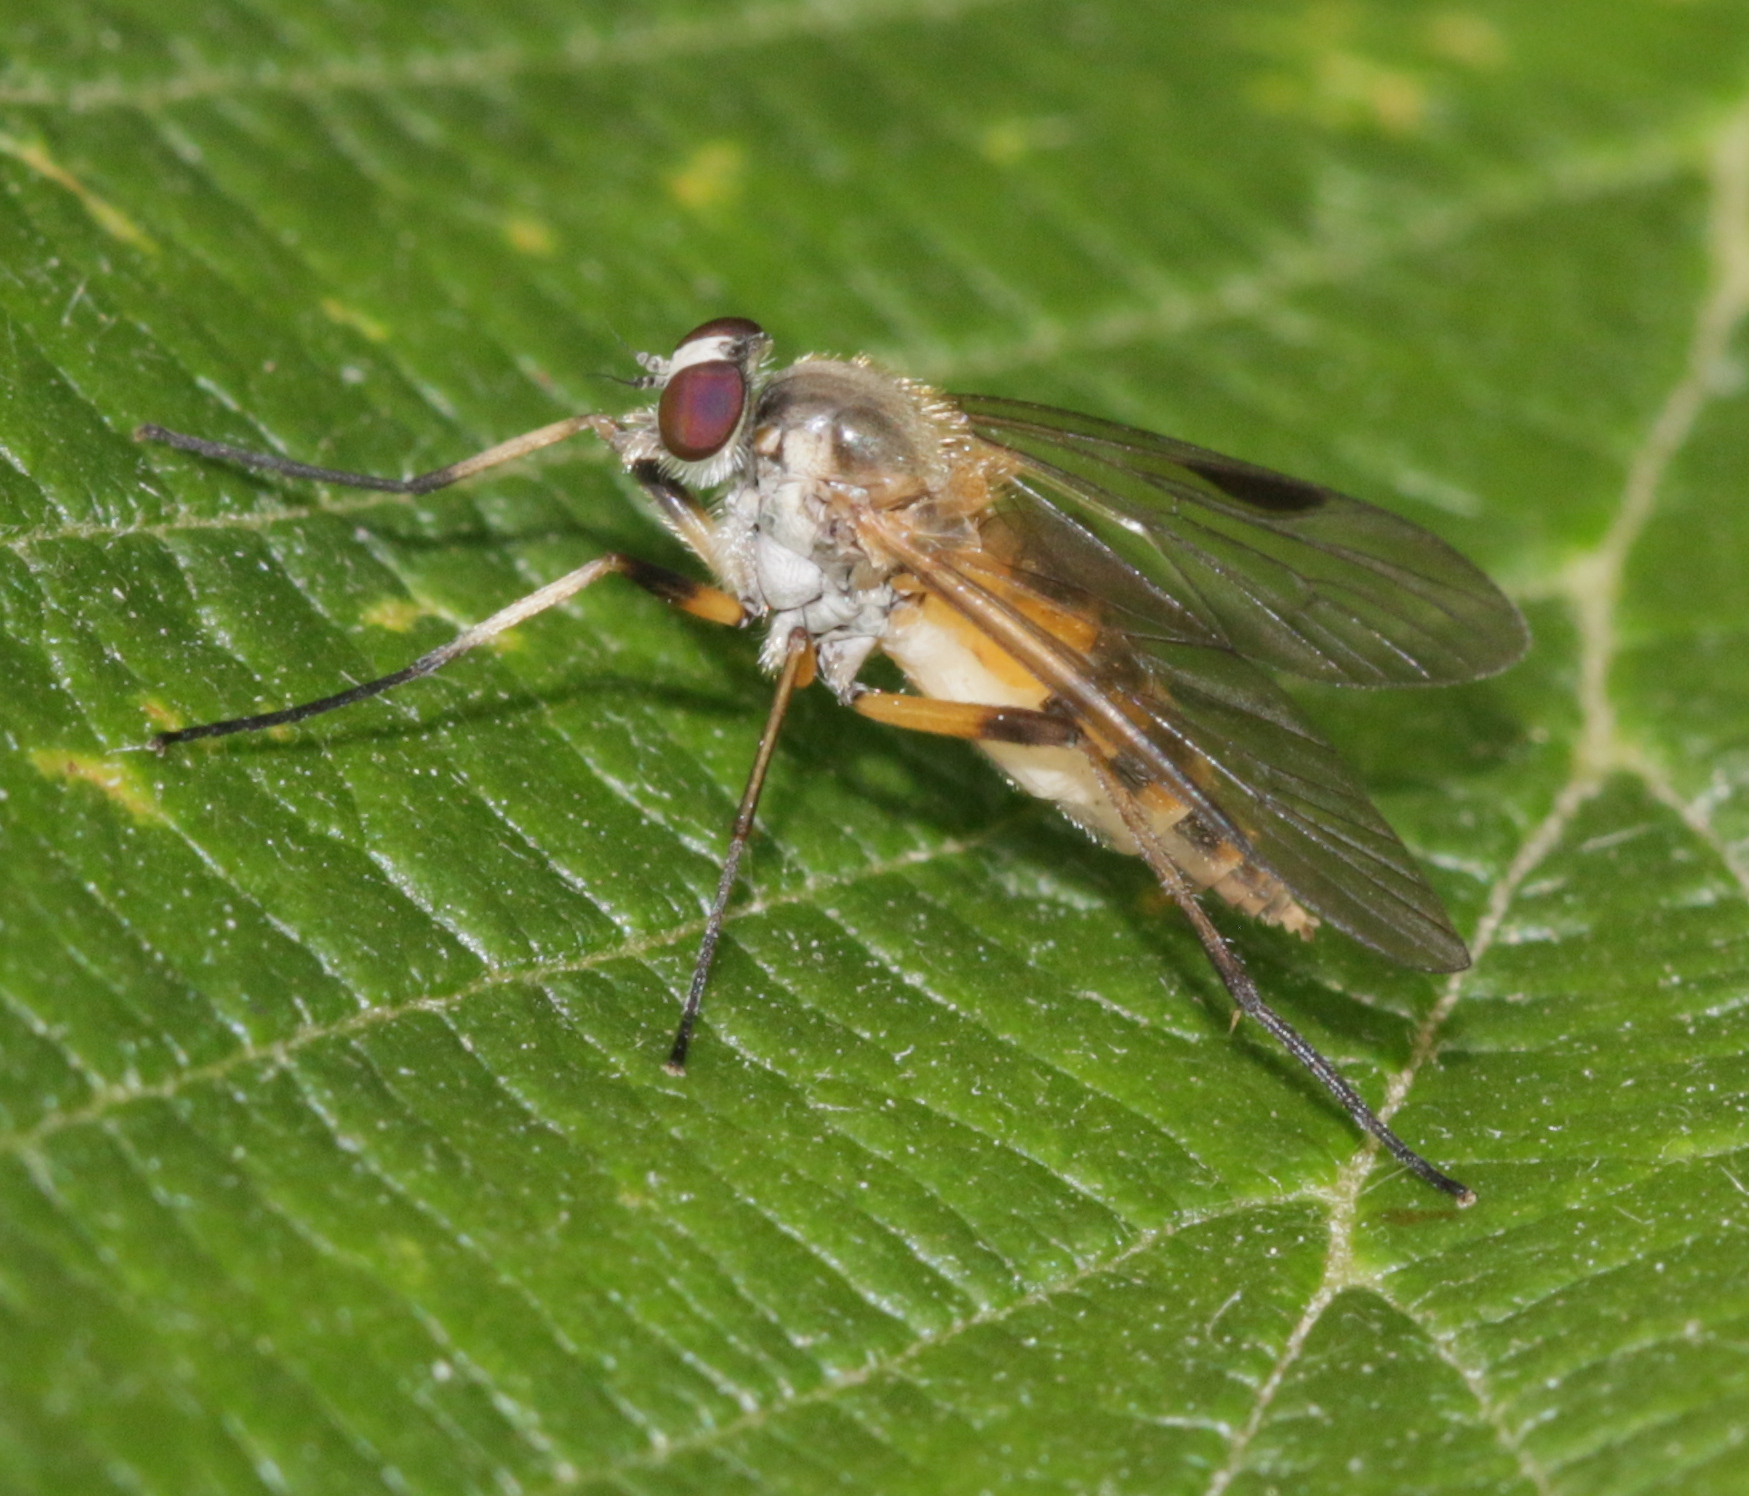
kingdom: Animalia
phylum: Arthropoda
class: Insecta
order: Diptera
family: Rhagionidae
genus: Rhagio
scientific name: Rhagio lineola
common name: Small fleck-winged snipefly
